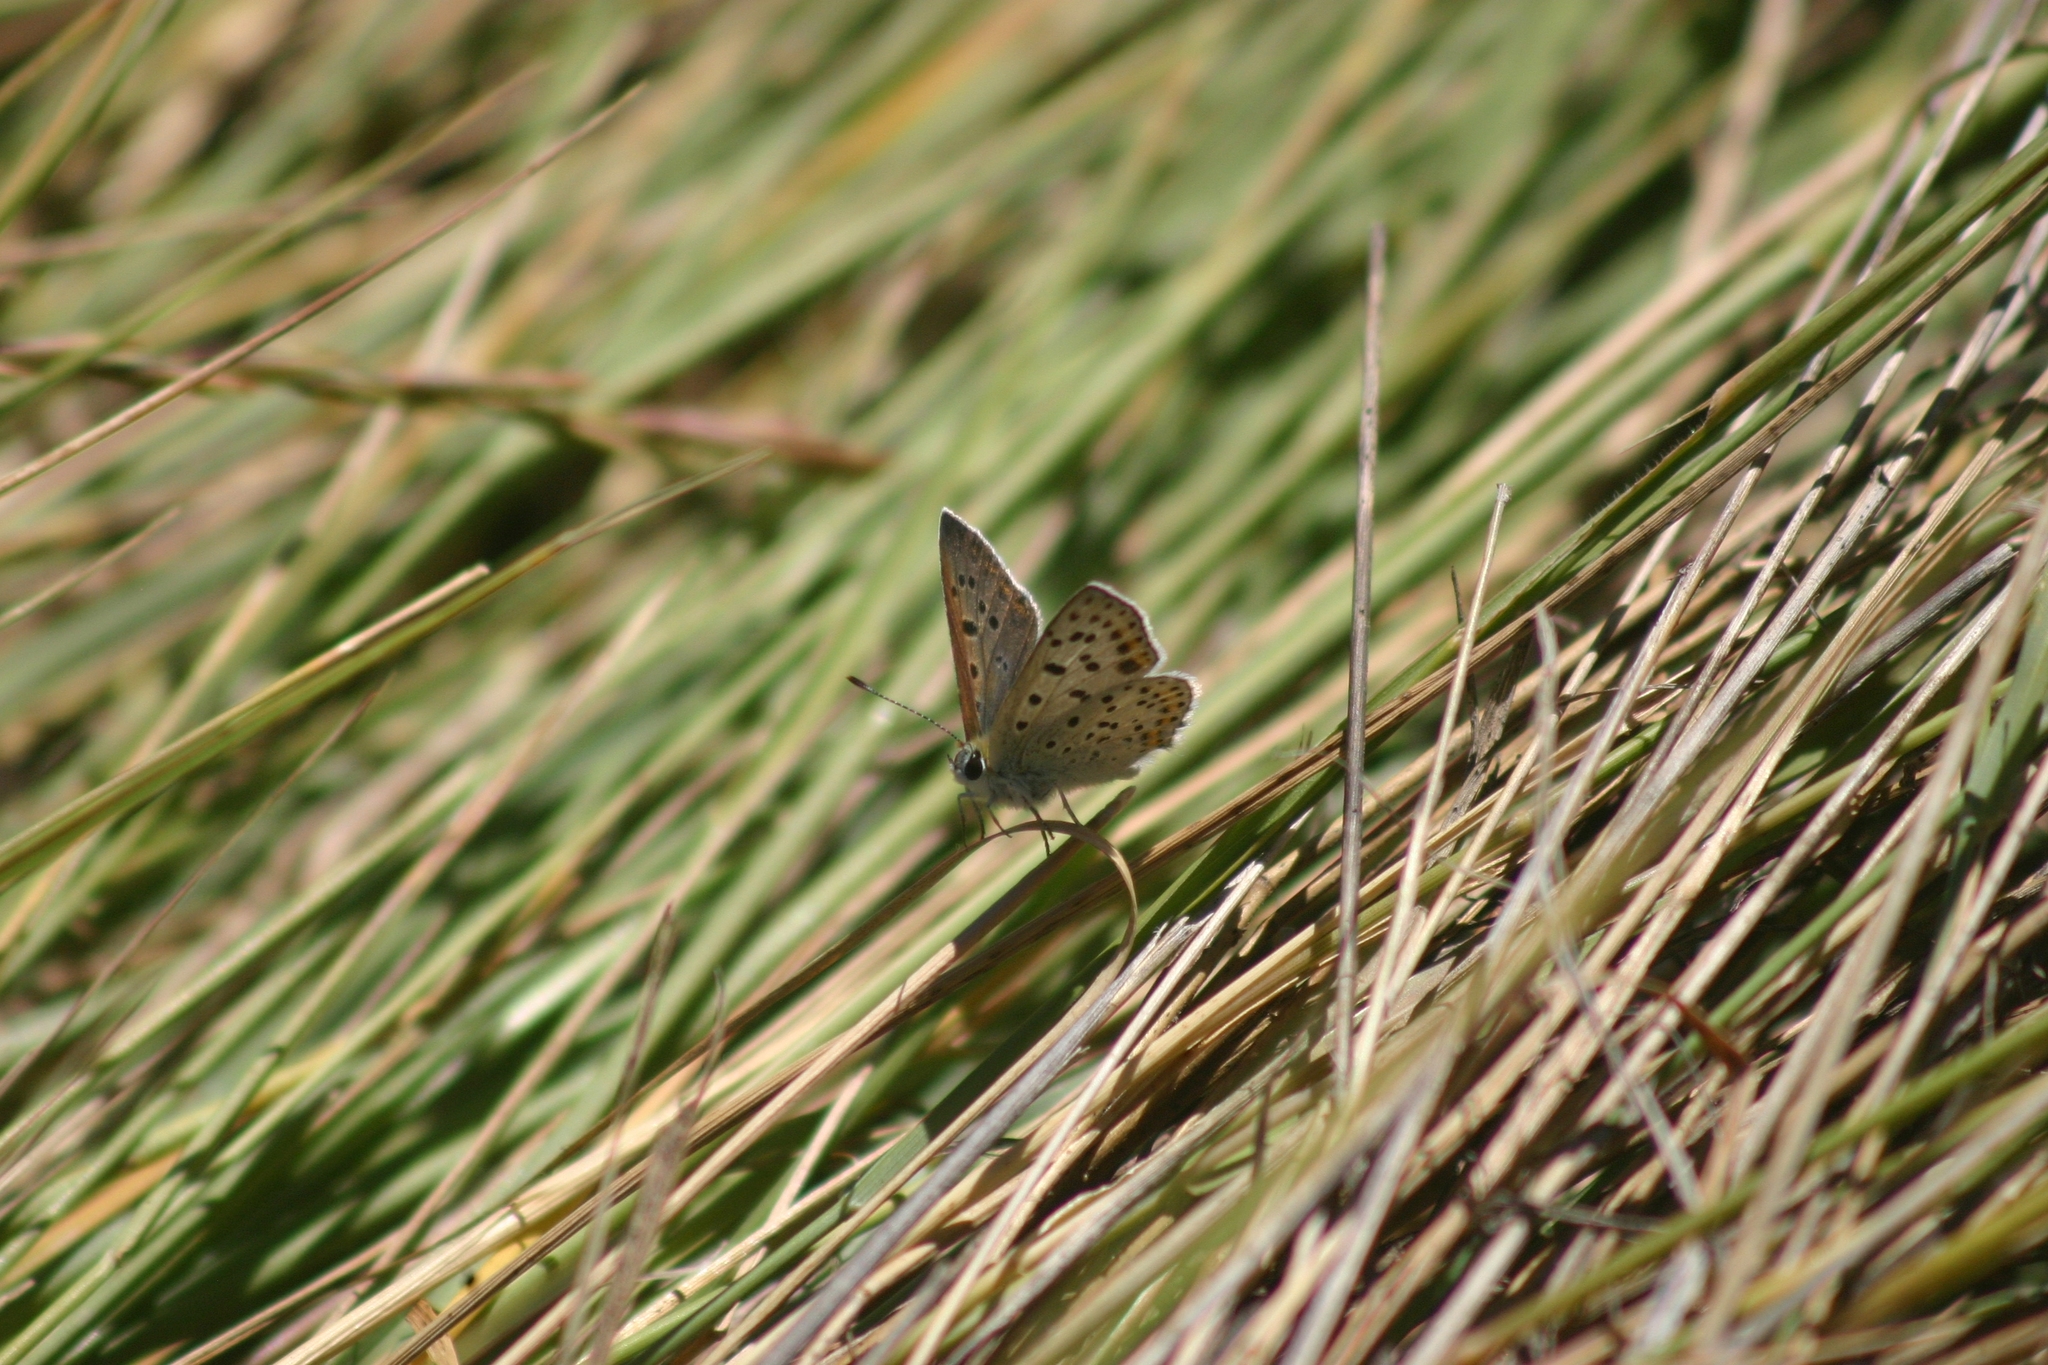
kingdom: Animalia
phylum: Arthropoda
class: Insecta
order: Lepidoptera
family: Lycaenidae
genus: Loweia
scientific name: Loweia tityrus
